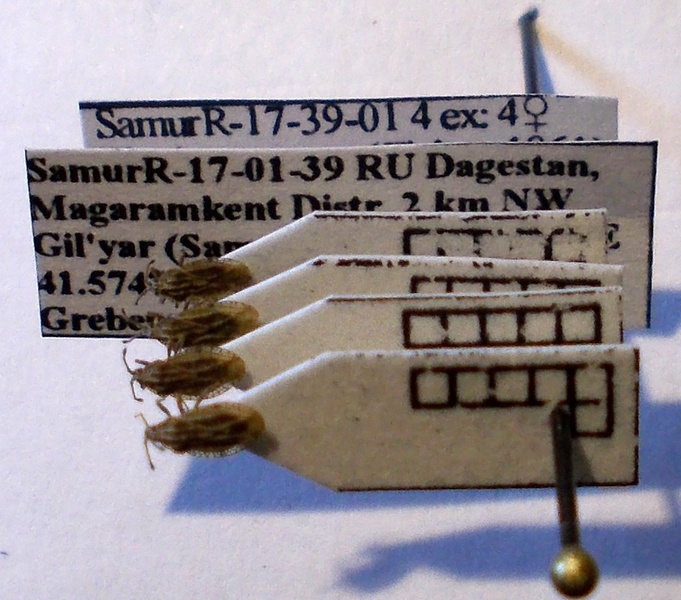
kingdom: Animalia
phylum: Arthropoda
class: Insecta
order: Hemiptera
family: Tingidae
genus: Tingis
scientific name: Tingis ragusana
